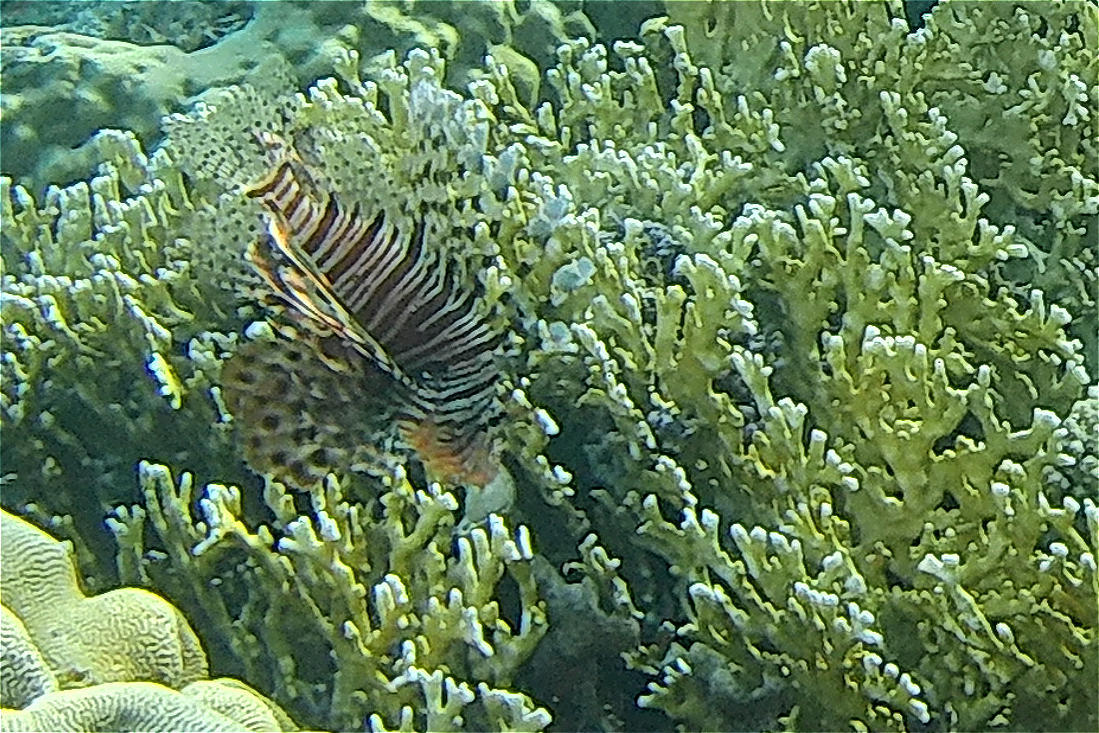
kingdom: Animalia
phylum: Chordata
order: Scorpaeniformes
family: Scorpaenidae
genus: Pterois
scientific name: Pterois miles
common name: Devil firefish
